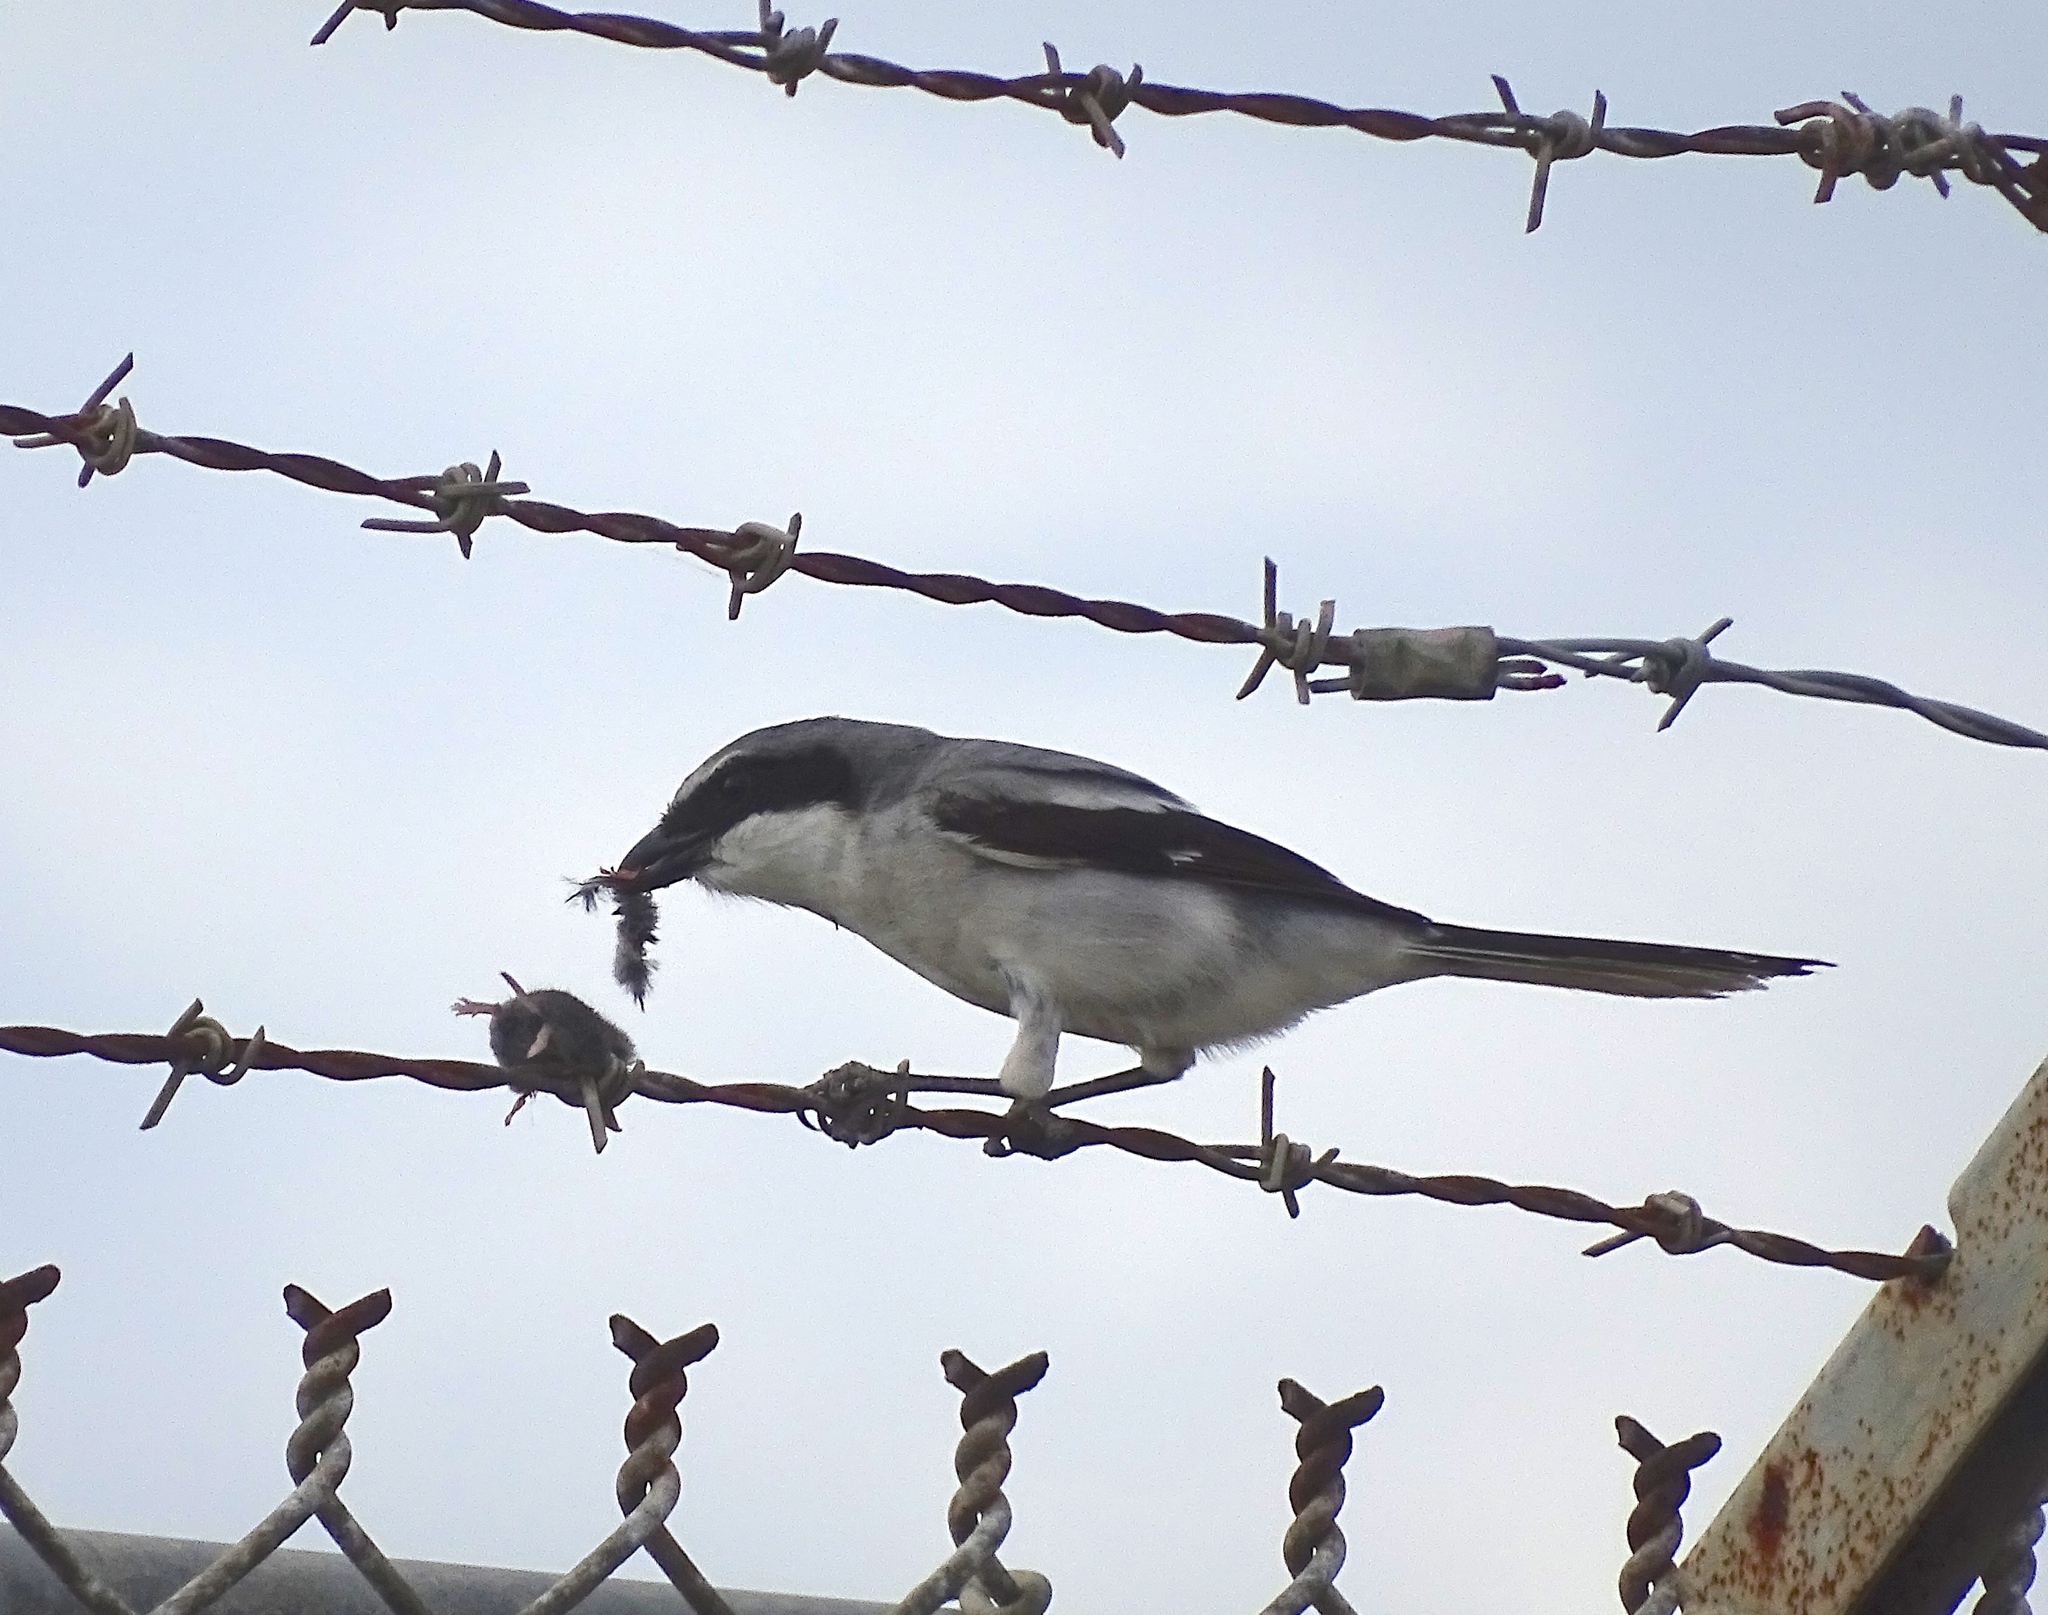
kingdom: Animalia
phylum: Chordata
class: Aves
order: Passeriformes
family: Laniidae
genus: Lanius
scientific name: Lanius ludovicianus
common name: Loggerhead shrike
